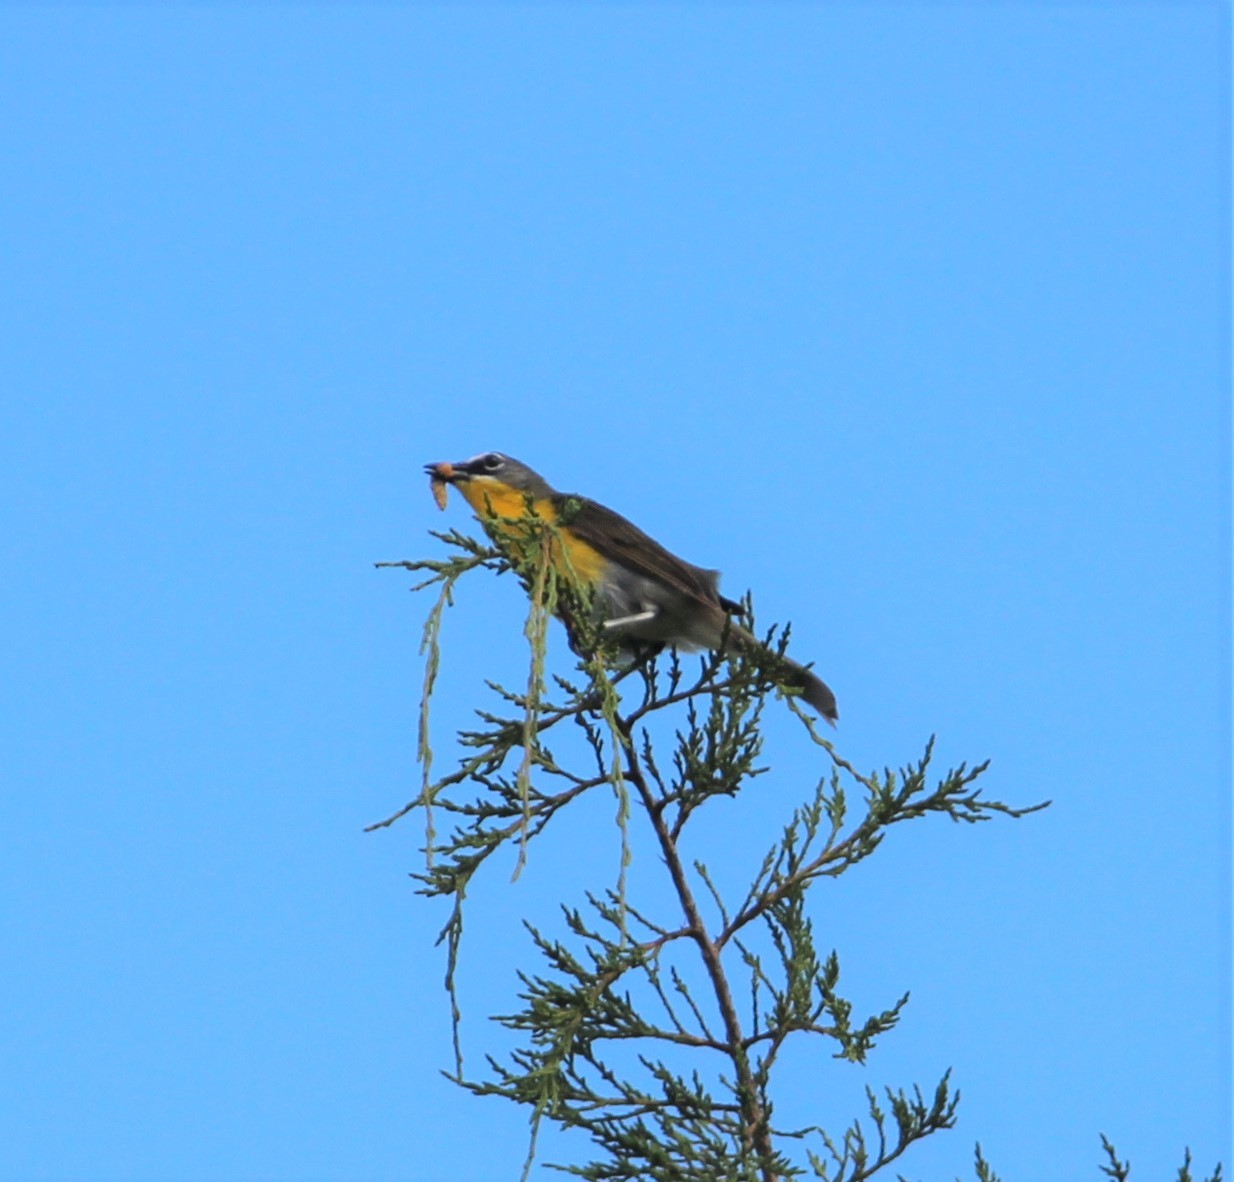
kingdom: Animalia
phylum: Chordata
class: Aves
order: Passeriformes
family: Parulidae
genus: Icteria
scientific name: Icteria virens
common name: Yellow-breasted chat
